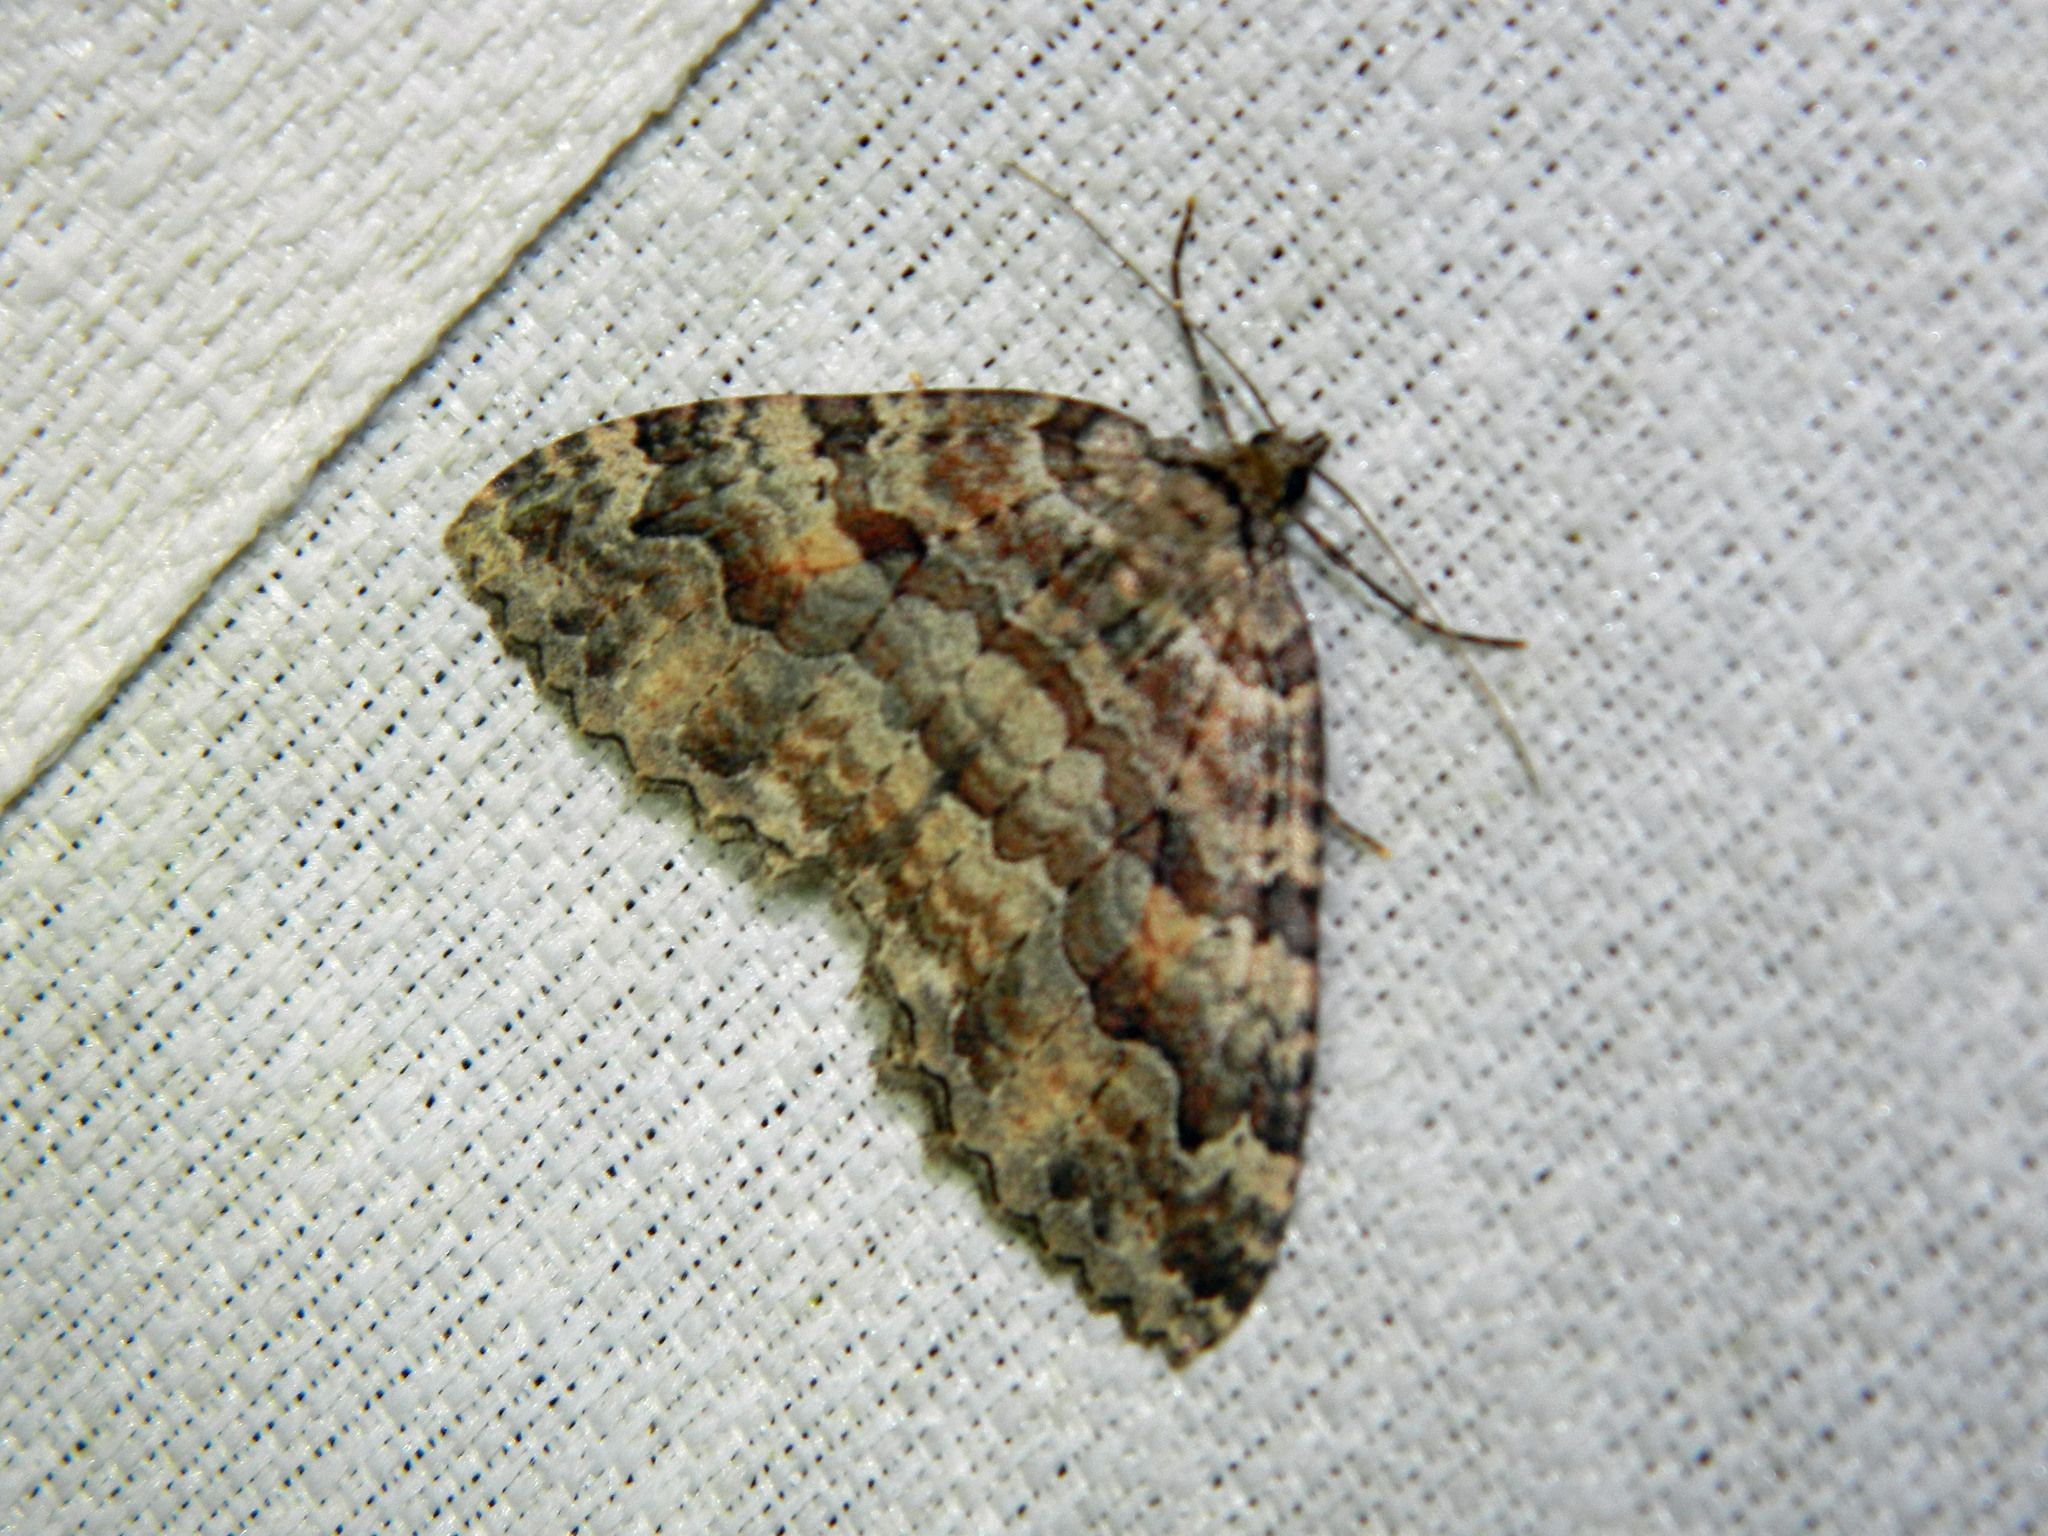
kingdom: Animalia
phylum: Arthropoda
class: Insecta
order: Lepidoptera
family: Geometridae
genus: Triphosa
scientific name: Triphosa haesitata
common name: Tissue moth
